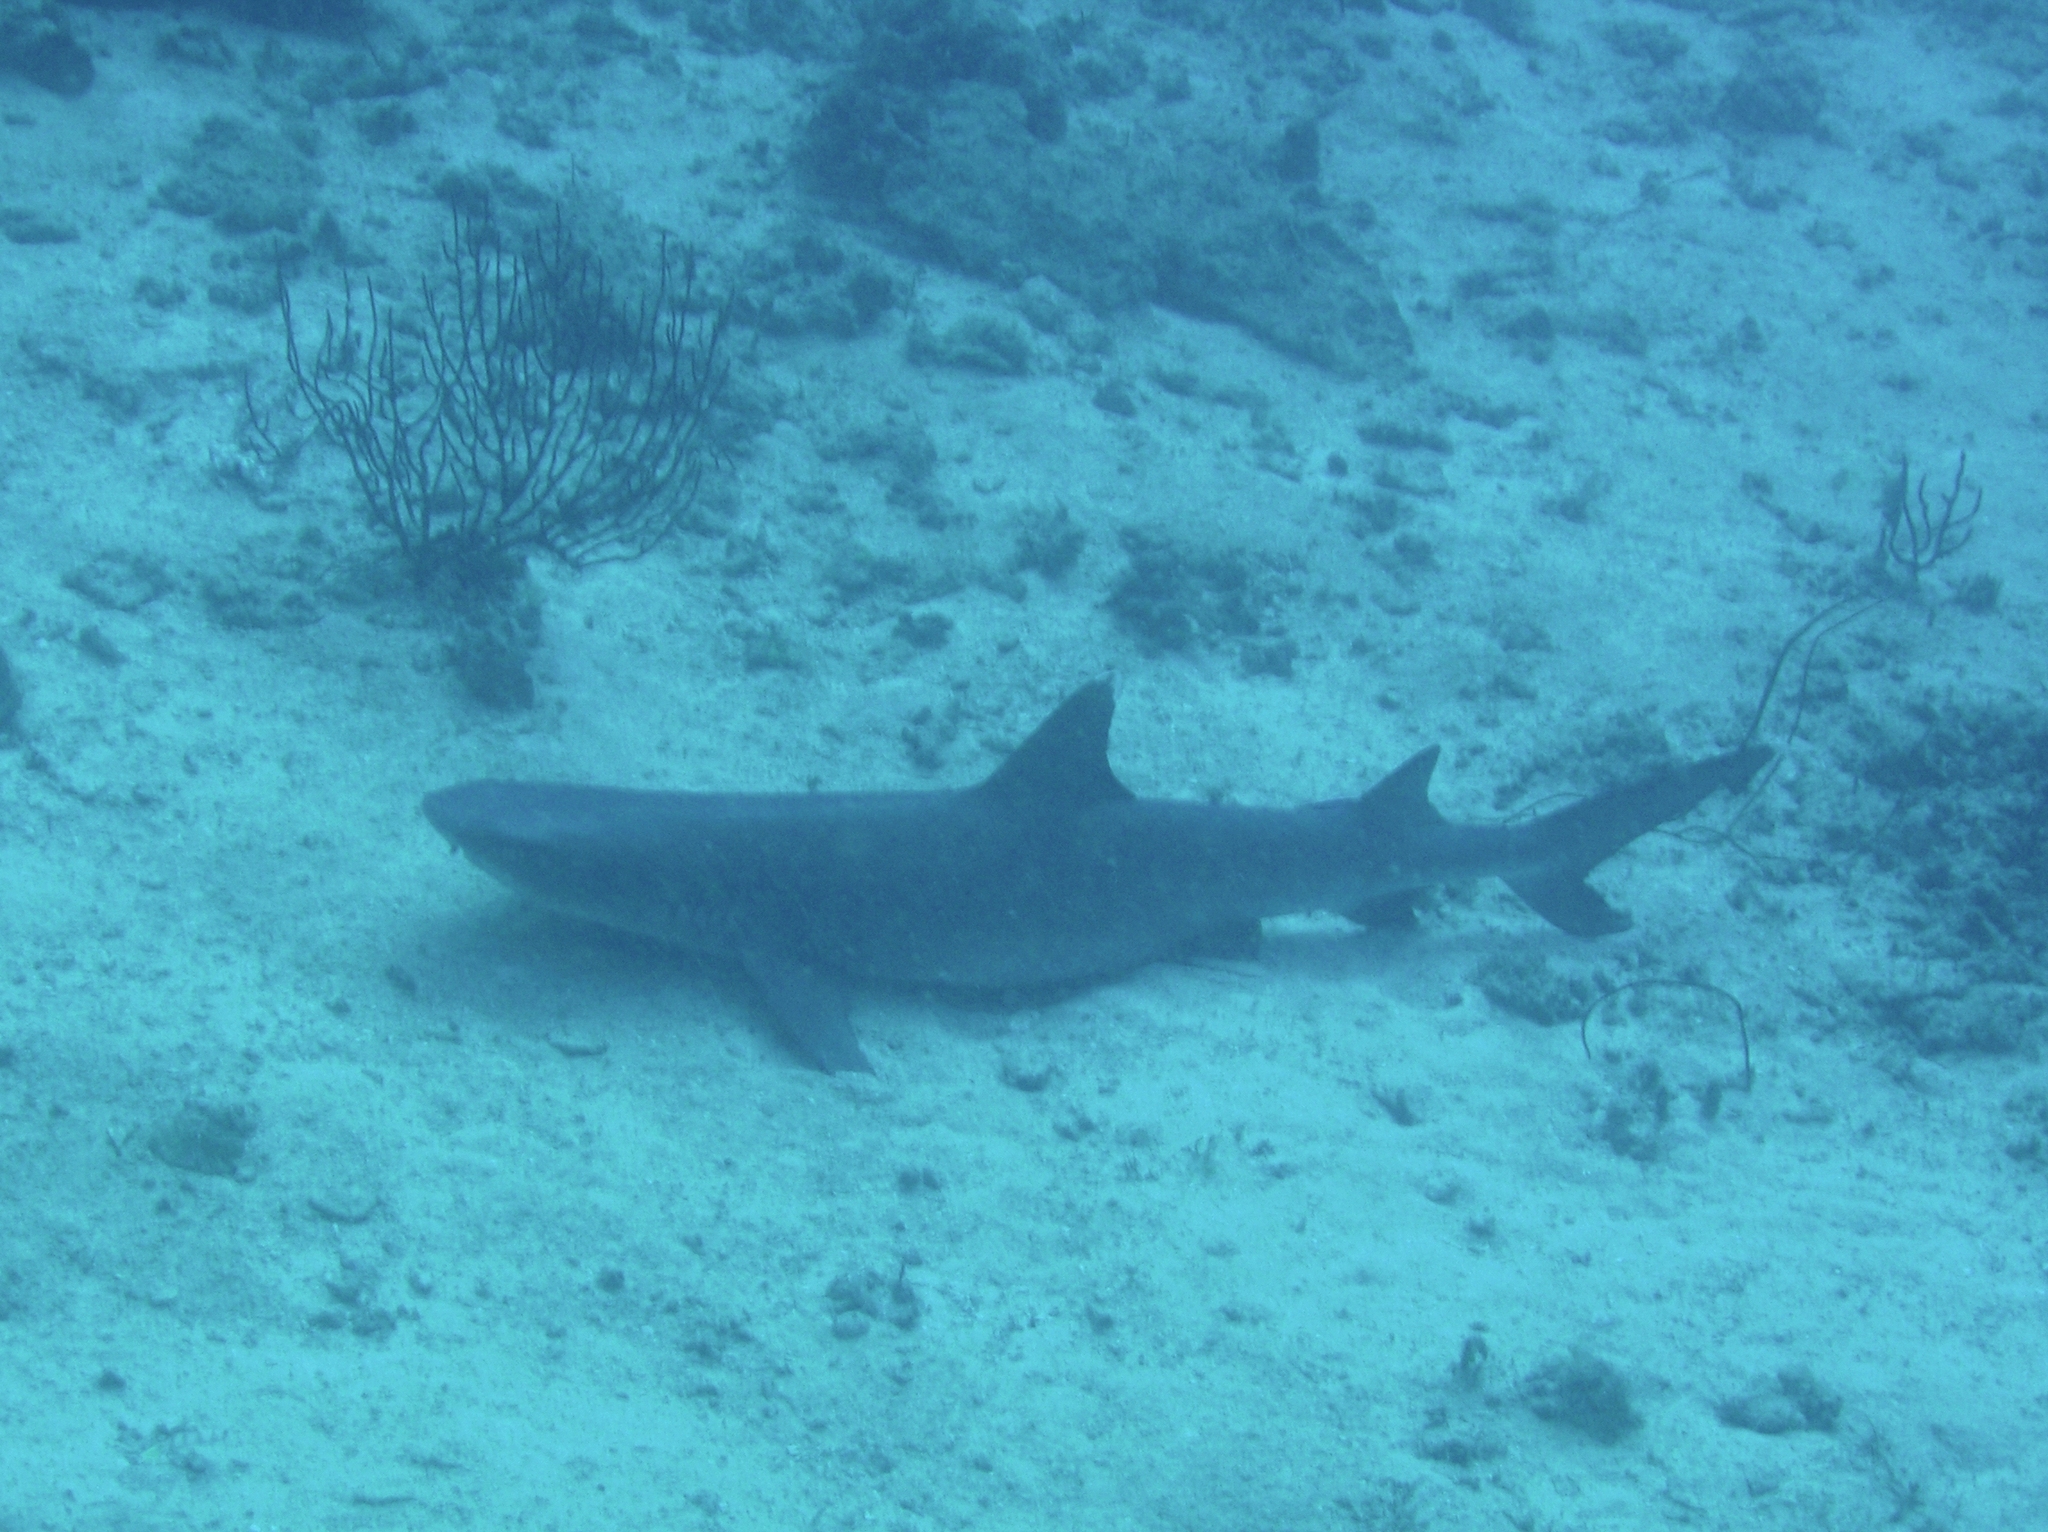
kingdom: Animalia
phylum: Chordata
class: Elasmobranchii
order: Carcharhiniformes
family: Carcharhinidae
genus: Triaenodon
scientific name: Triaenodon obesus
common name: Whitetip reef shark
